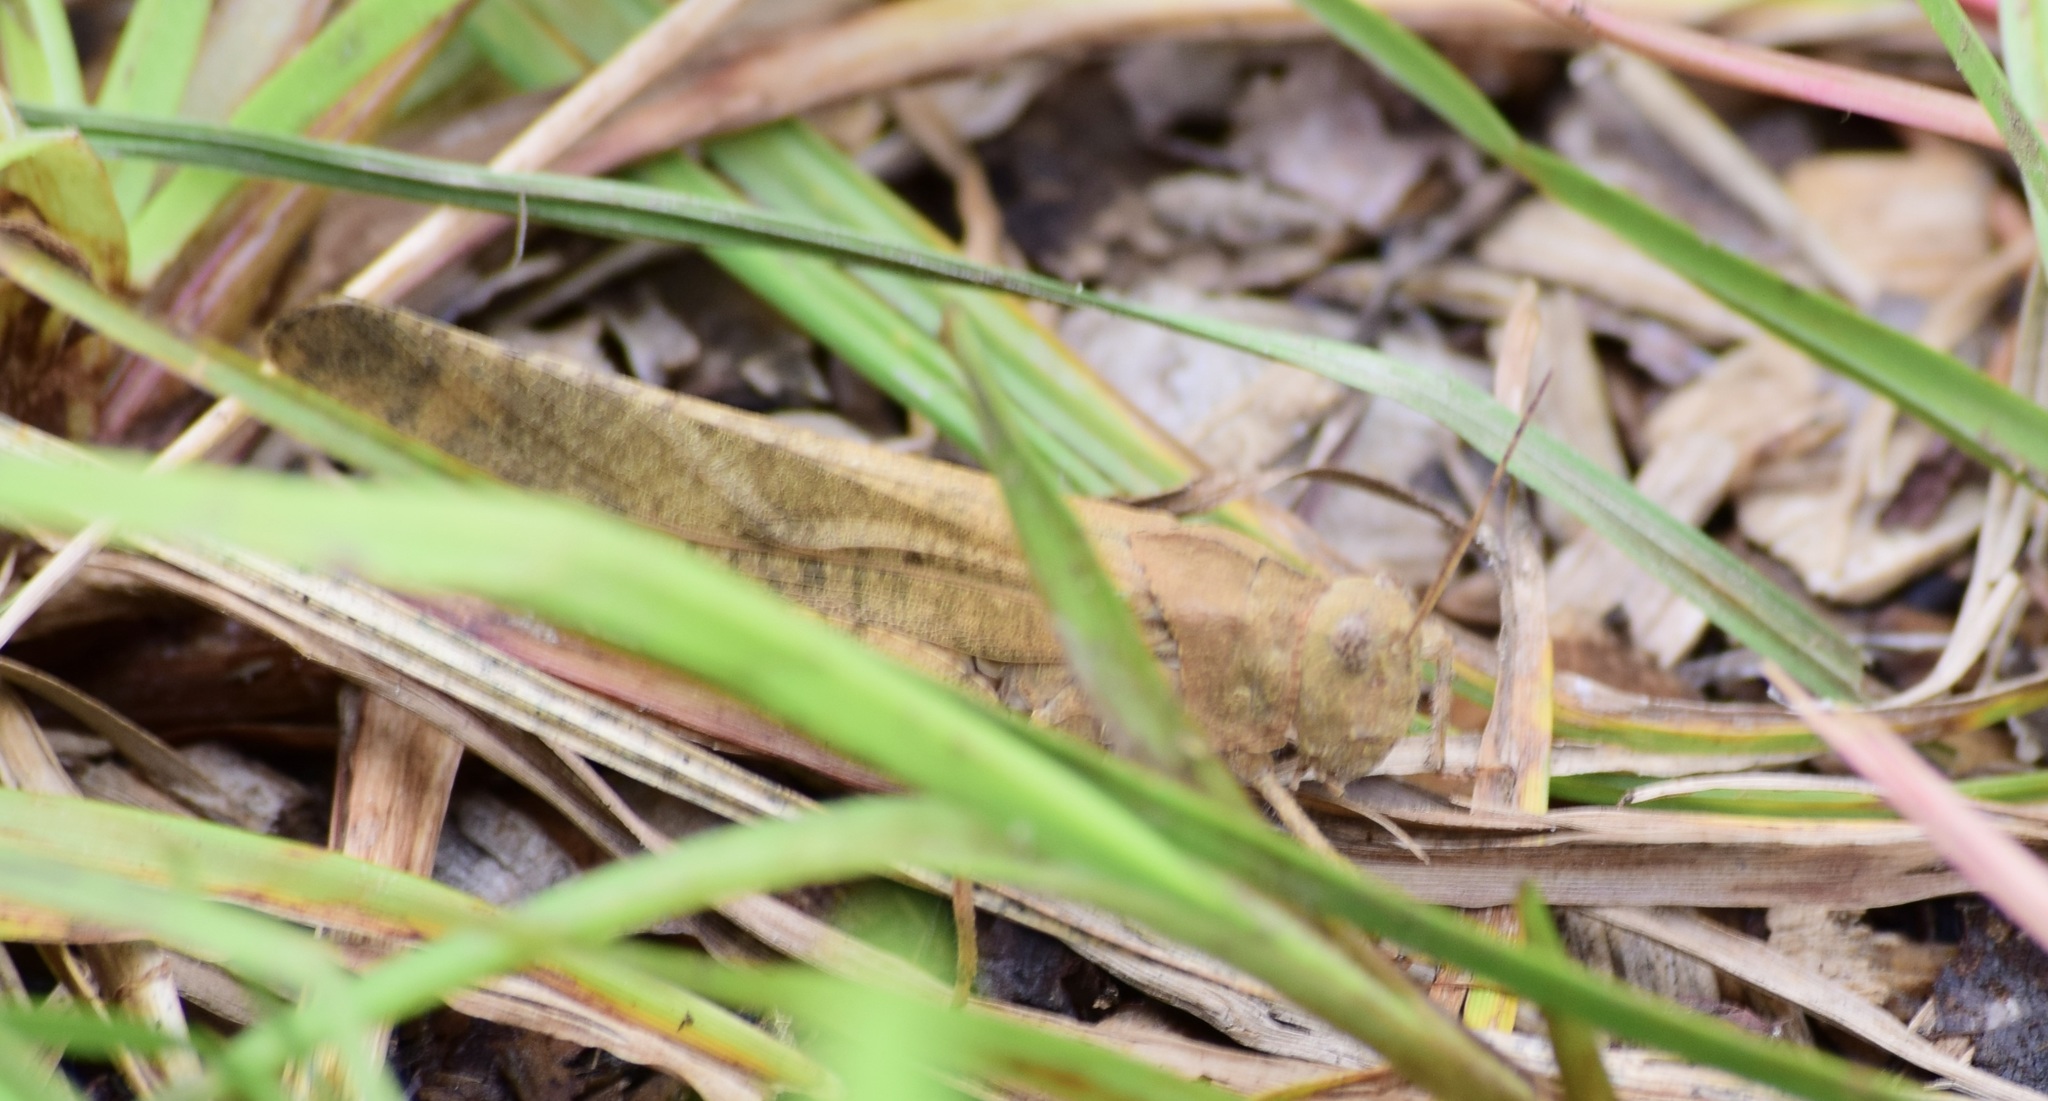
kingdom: Animalia
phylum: Arthropoda
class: Insecta
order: Orthoptera
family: Acrididae
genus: Dissosteira
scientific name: Dissosteira carolina
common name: Carolina grasshopper
